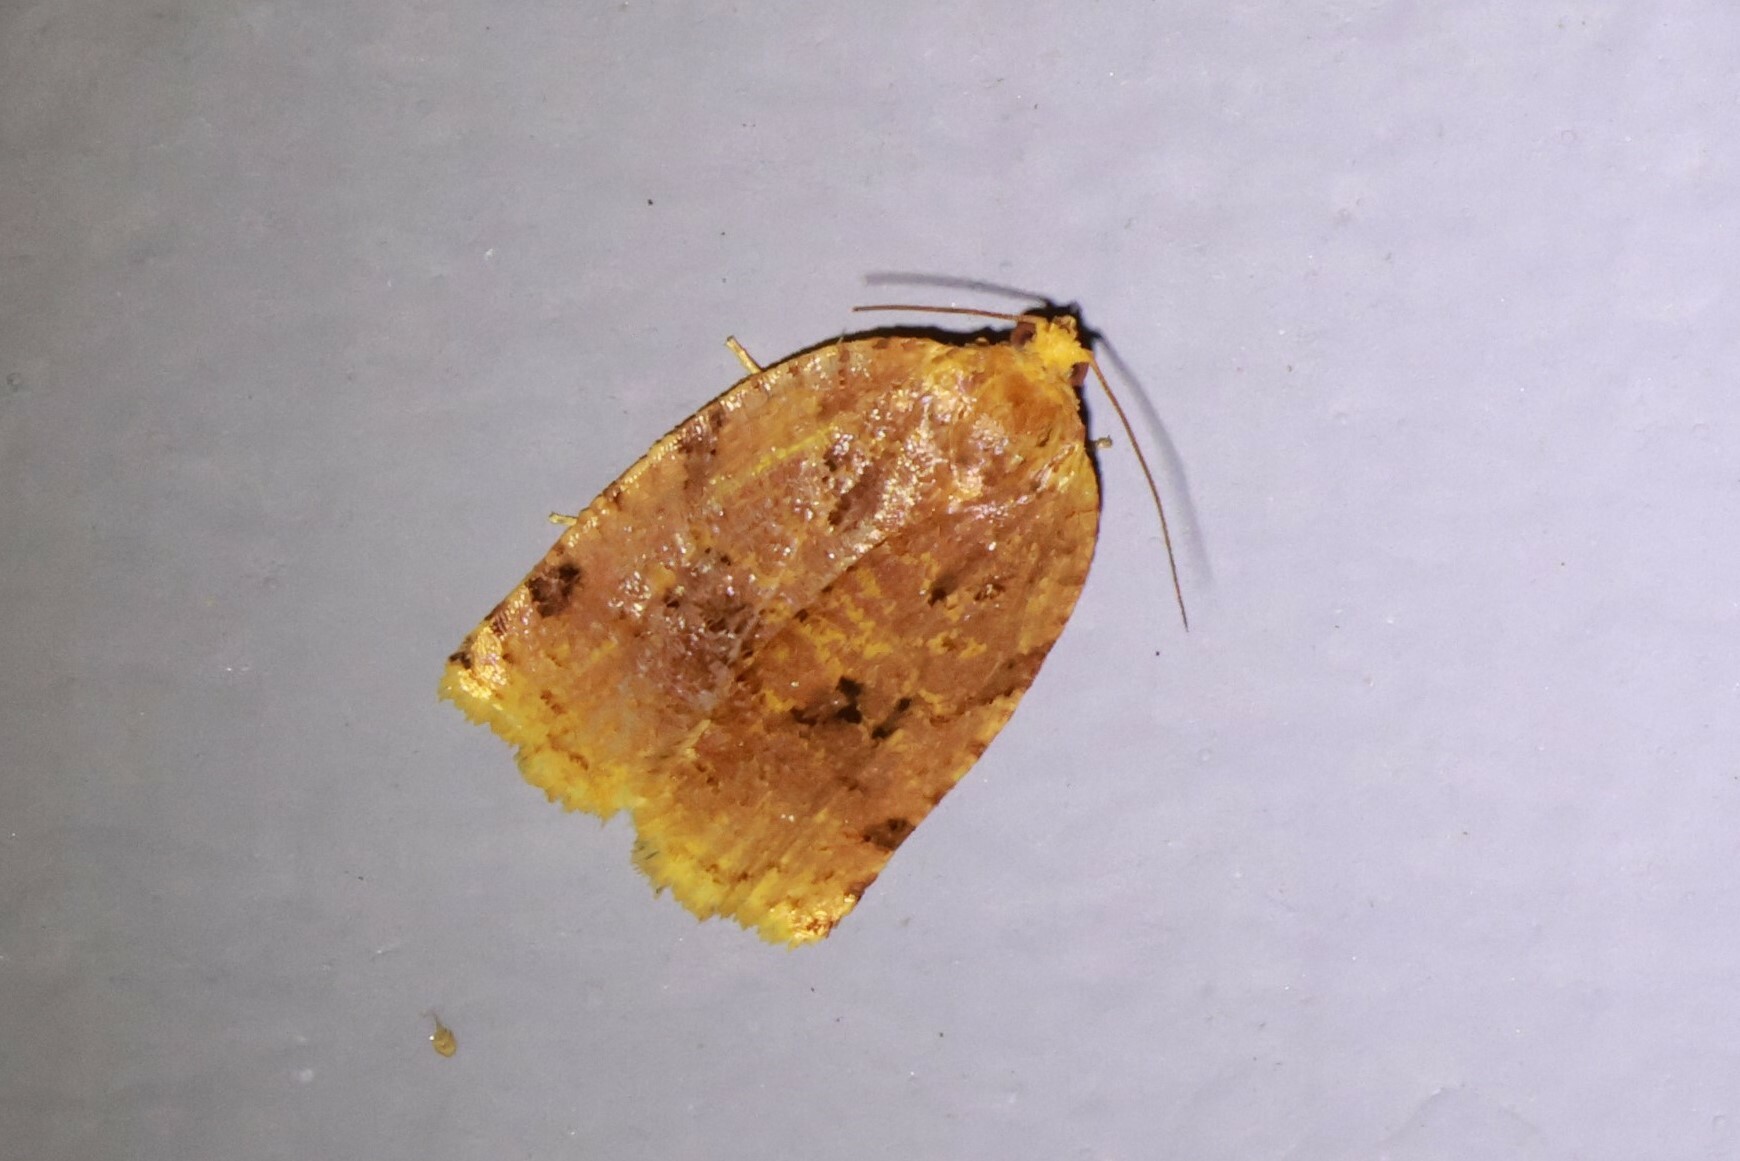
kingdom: Animalia
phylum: Arthropoda
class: Insecta
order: Lepidoptera
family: Tortricidae
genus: Archips
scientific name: Archips cerasivorana
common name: Uglynest caterpillar
